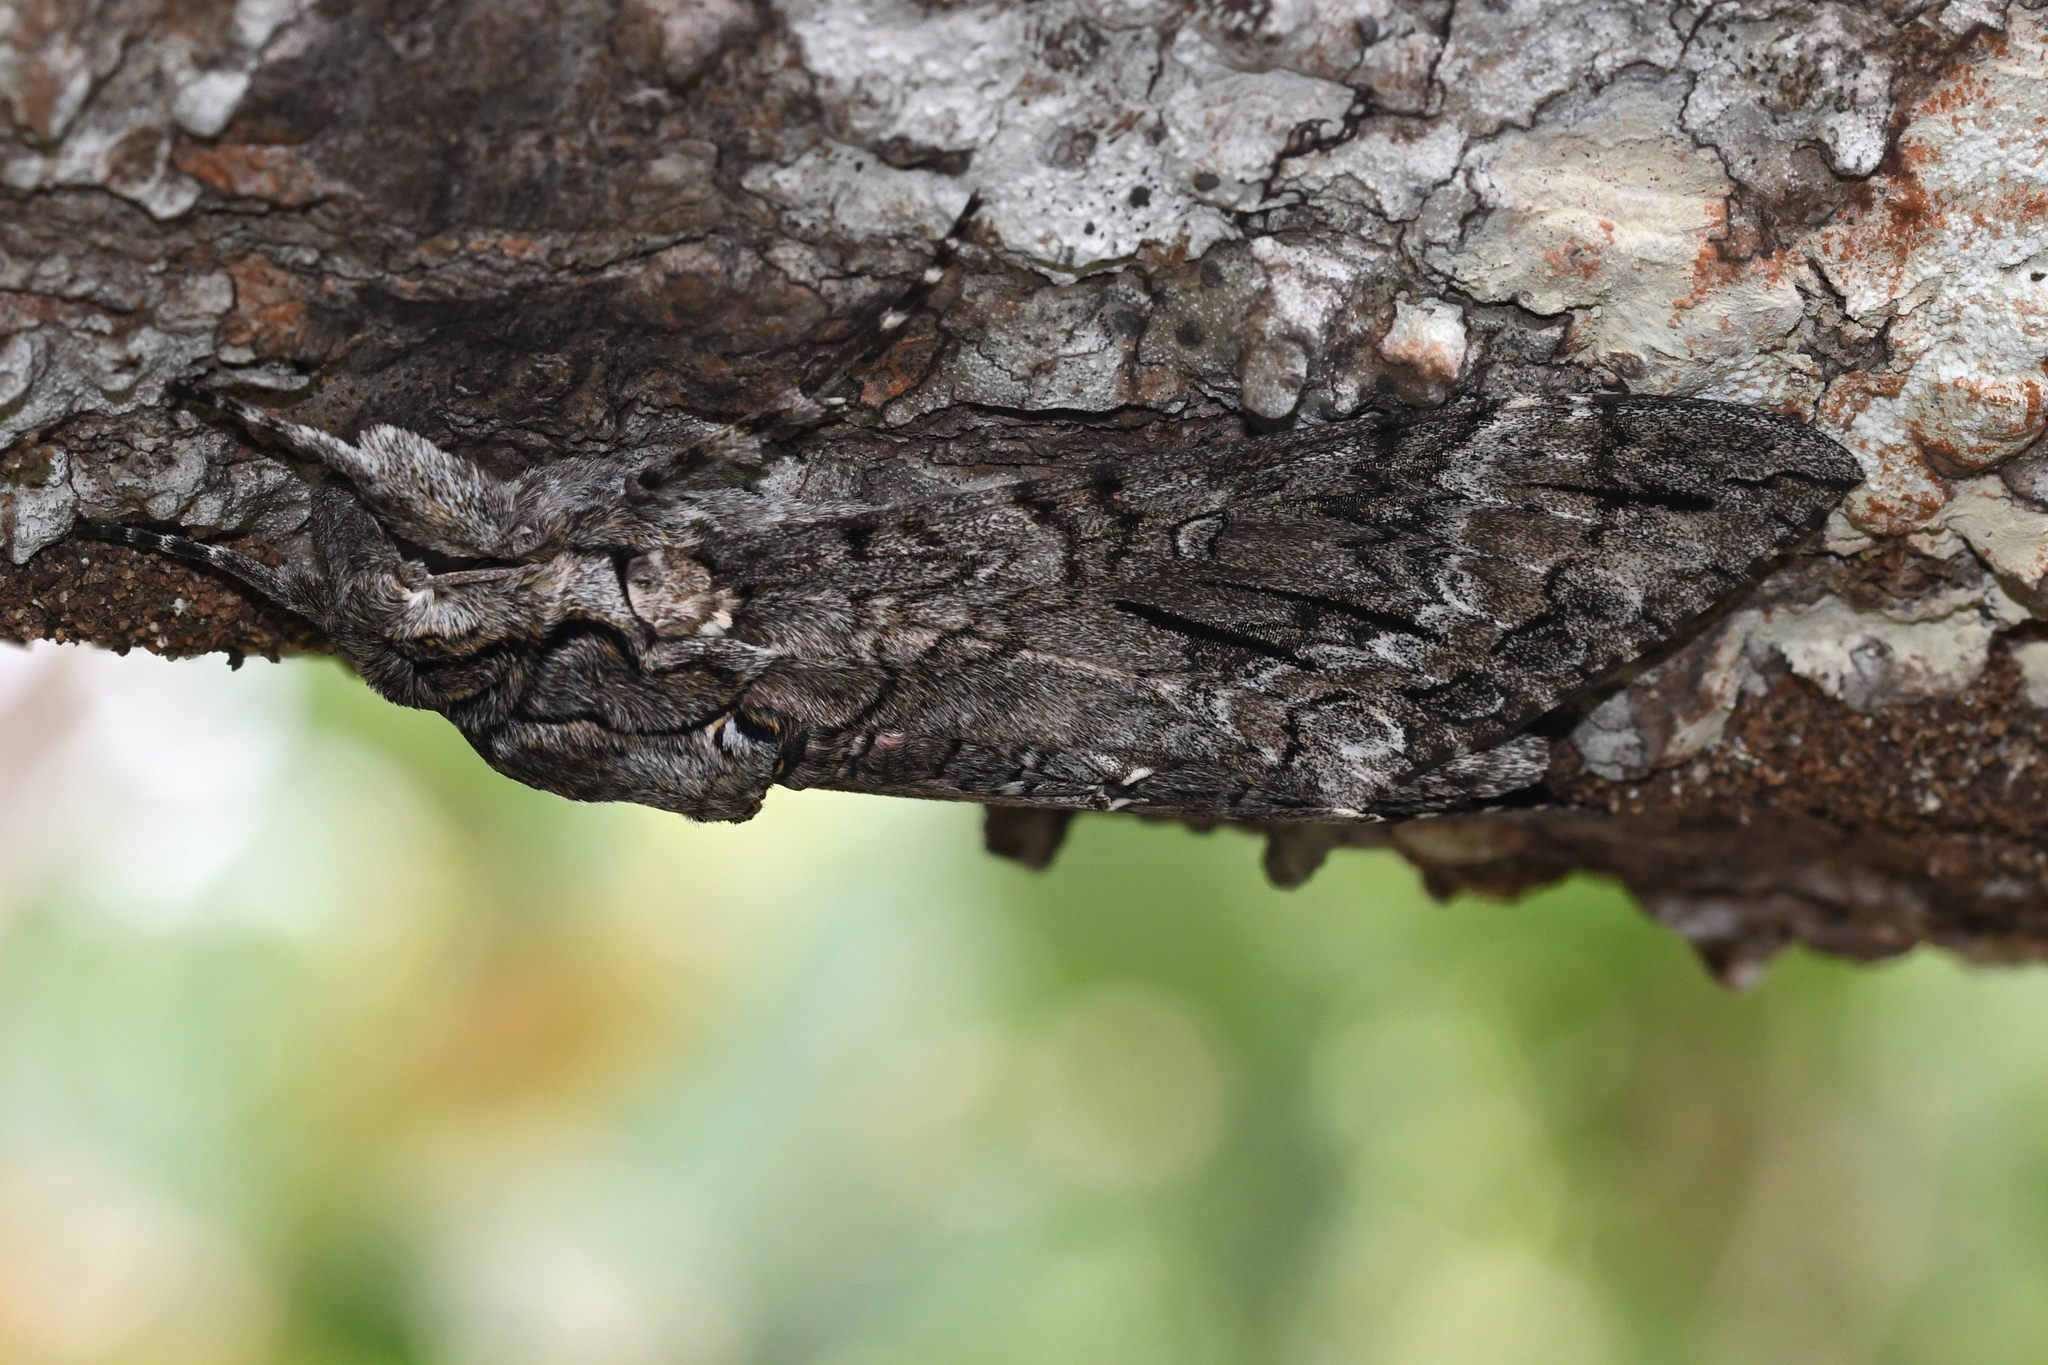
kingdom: Animalia
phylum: Arthropoda
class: Insecta
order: Lepidoptera
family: Sphingidae
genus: Agrius
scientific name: Agrius cingulata
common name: Pink-spotted hawkmoth
